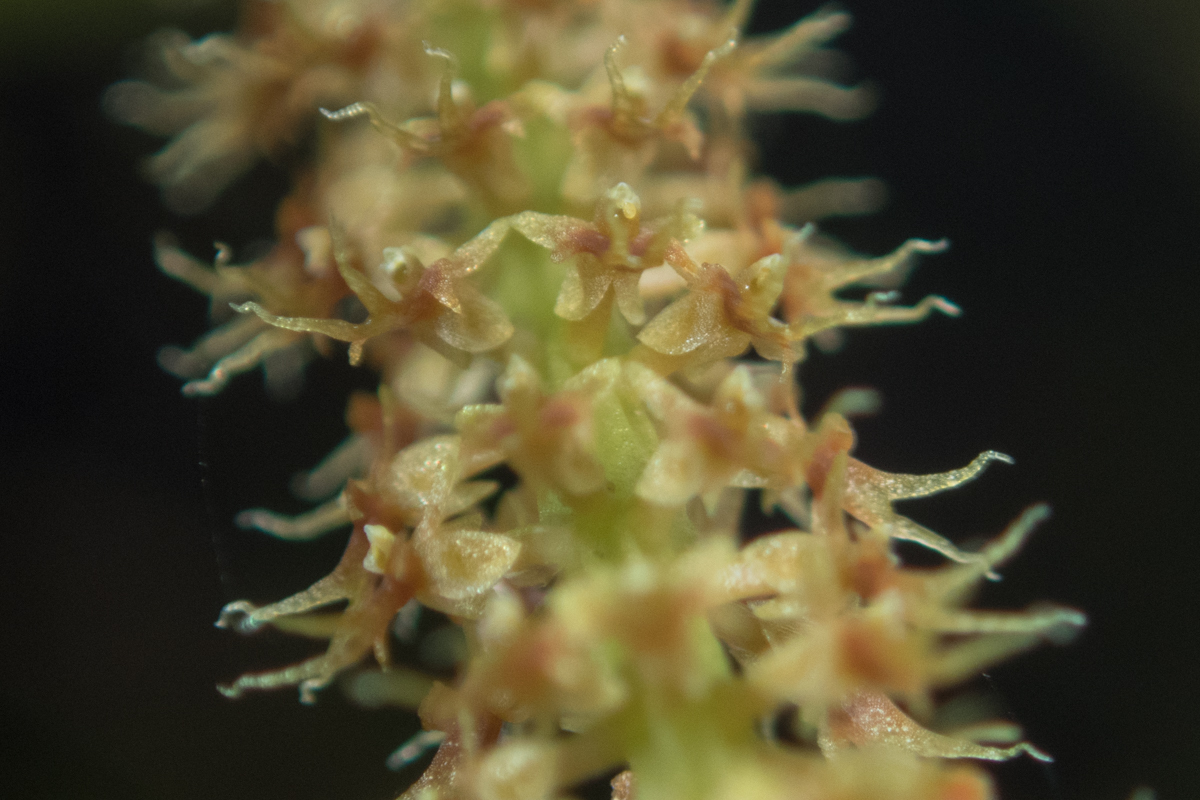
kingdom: Plantae
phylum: Tracheophyta
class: Liliopsida
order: Asparagales
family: Orchidaceae
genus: Oberonia
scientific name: Oberonia falcata
